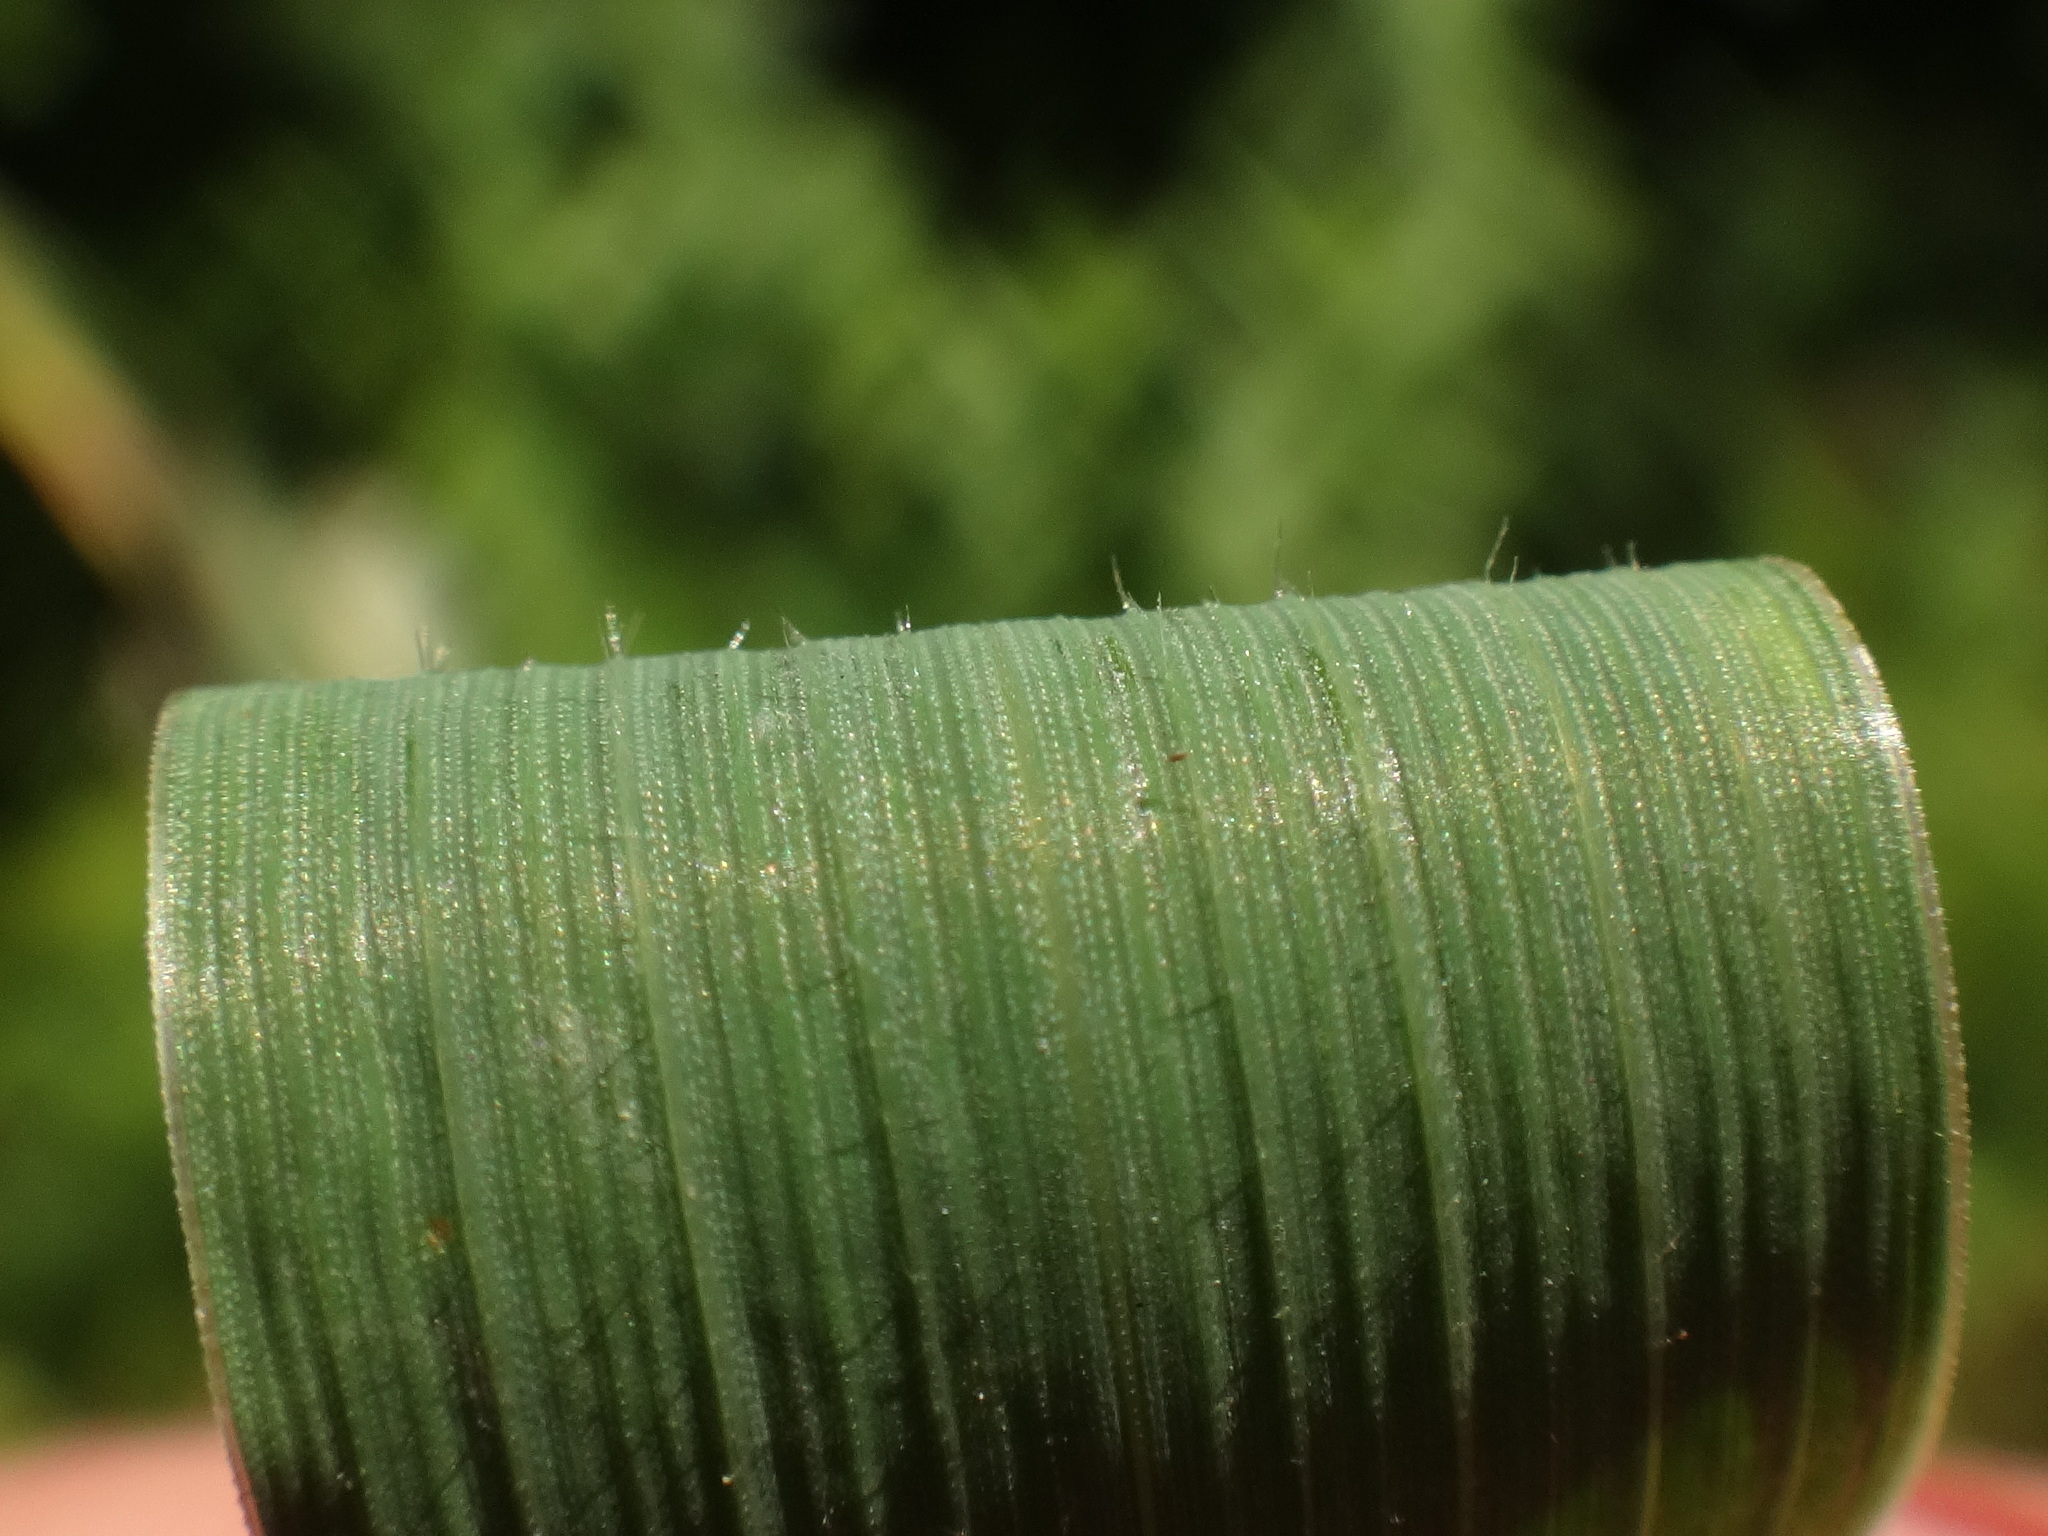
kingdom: Plantae
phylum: Tracheophyta
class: Liliopsida
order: Poales
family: Poaceae
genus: Elymus
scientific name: Elymus repens
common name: Quackgrass
